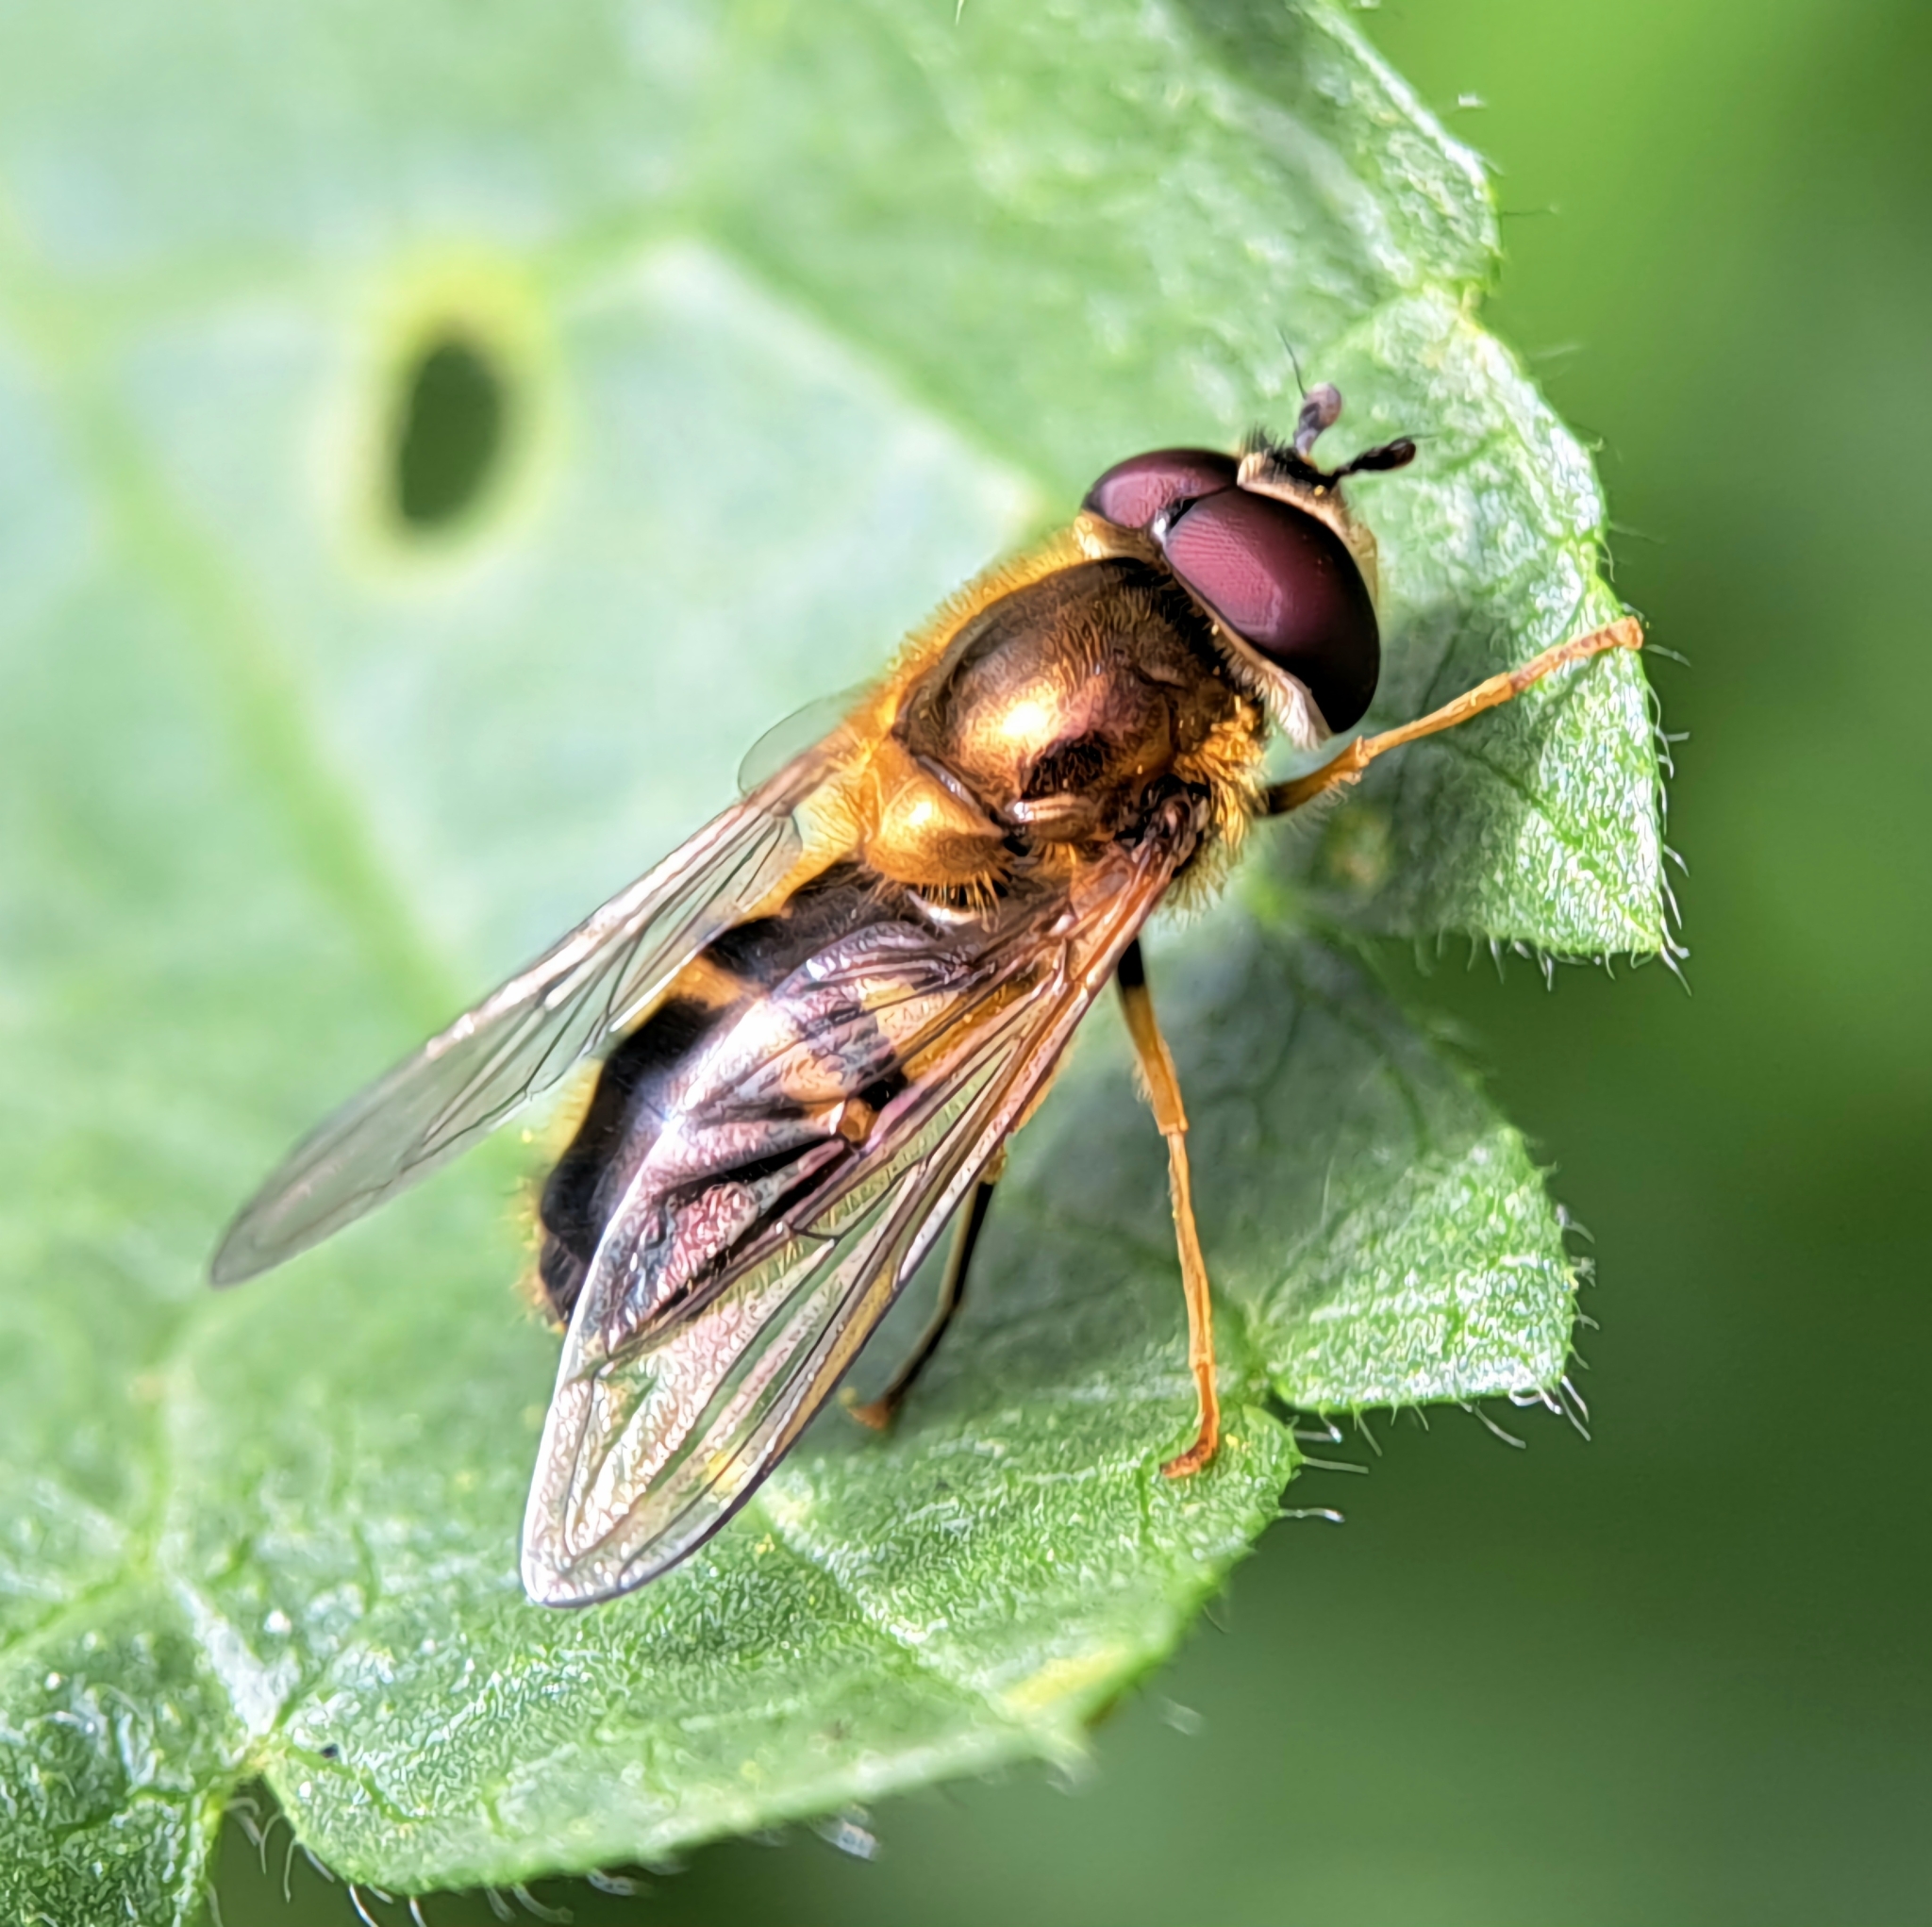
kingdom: Animalia
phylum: Arthropoda
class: Insecta
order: Diptera
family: Syrphidae
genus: Epistrophe
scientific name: Epistrophe eligans
